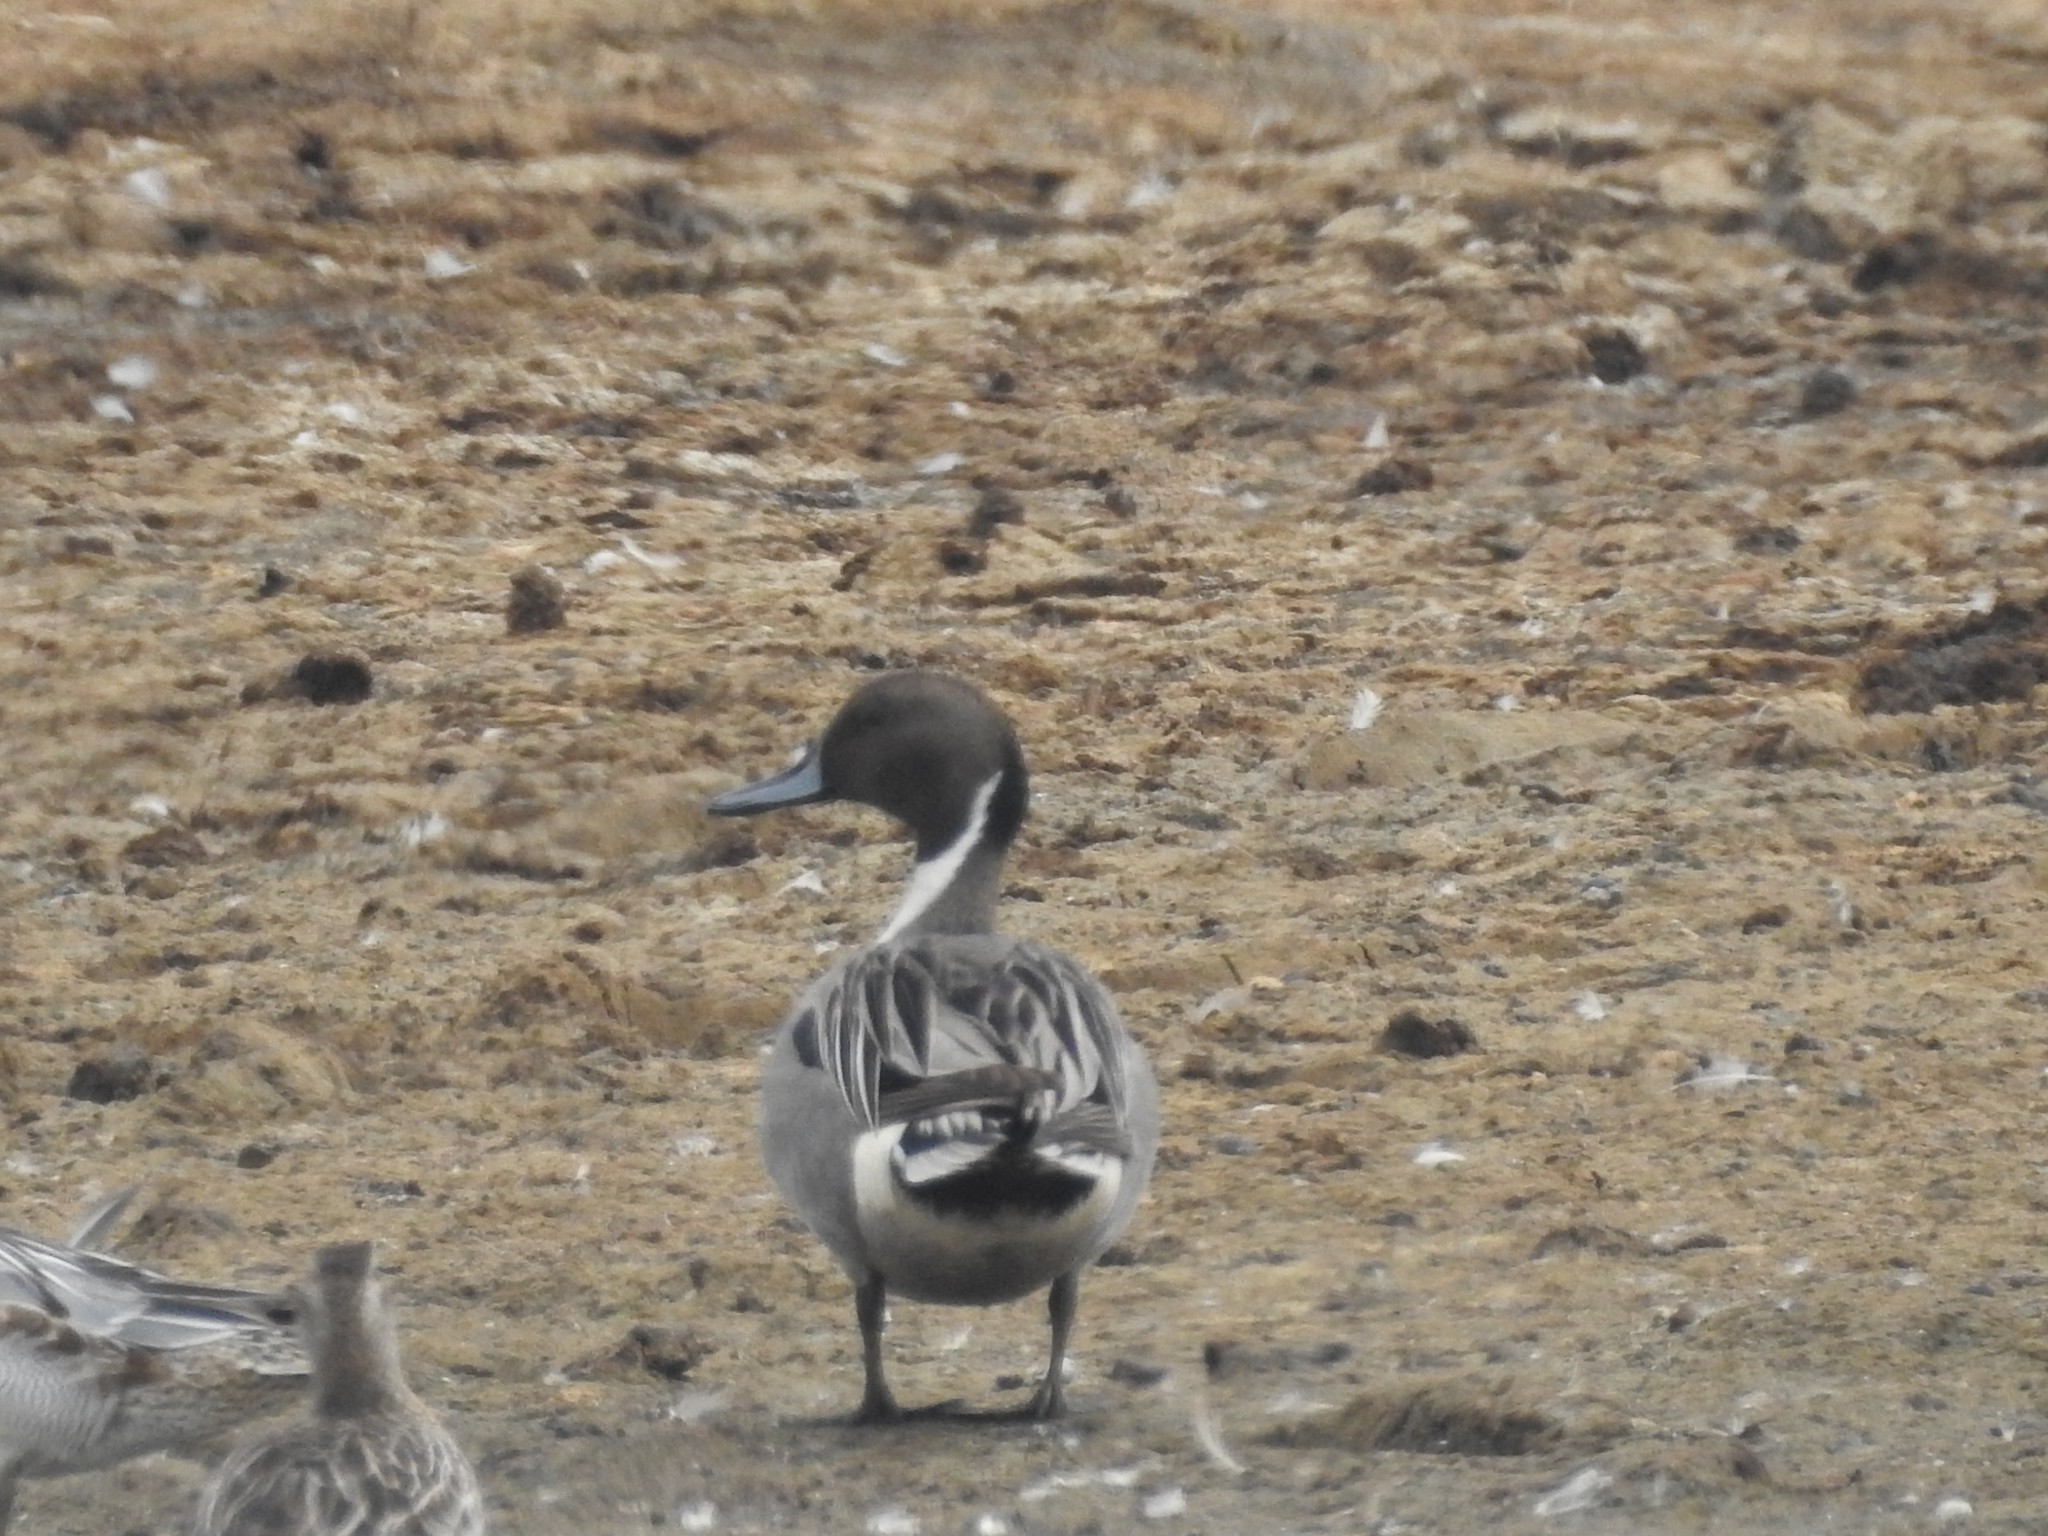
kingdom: Animalia
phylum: Chordata
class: Aves
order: Anseriformes
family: Anatidae
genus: Anas
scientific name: Anas acuta
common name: Northern pintail
